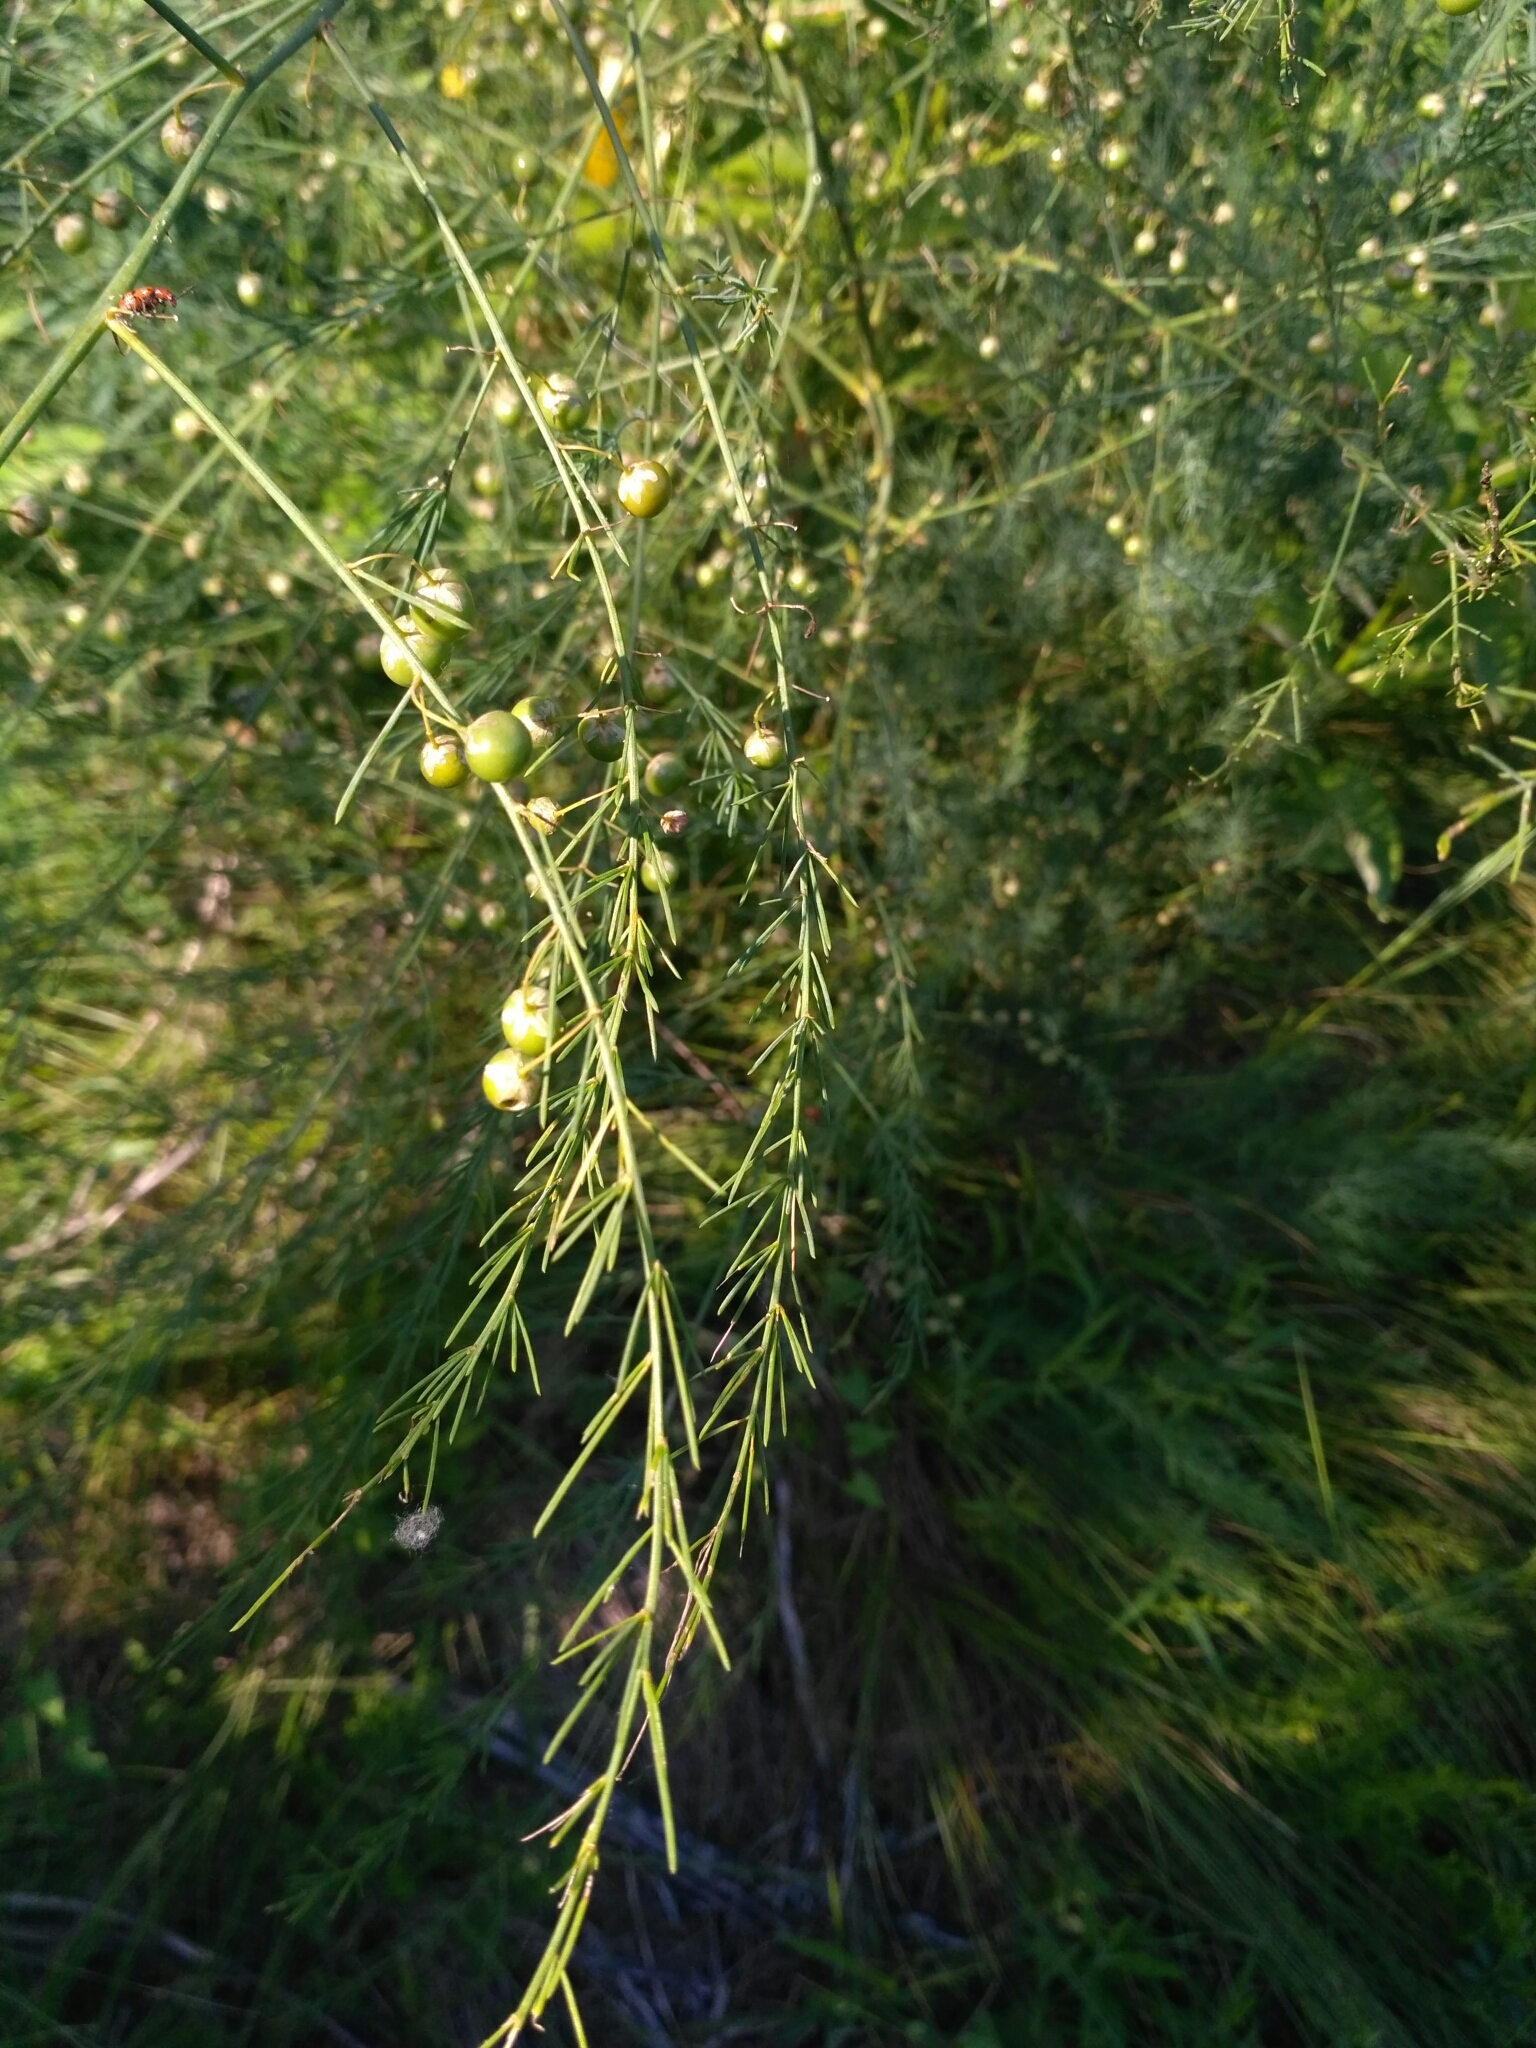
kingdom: Plantae
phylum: Tracheophyta
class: Liliopsida
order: Asparagales
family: Asparagaceae
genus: Asparagus
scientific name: Asparagus officinalis
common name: Garden asparagus
